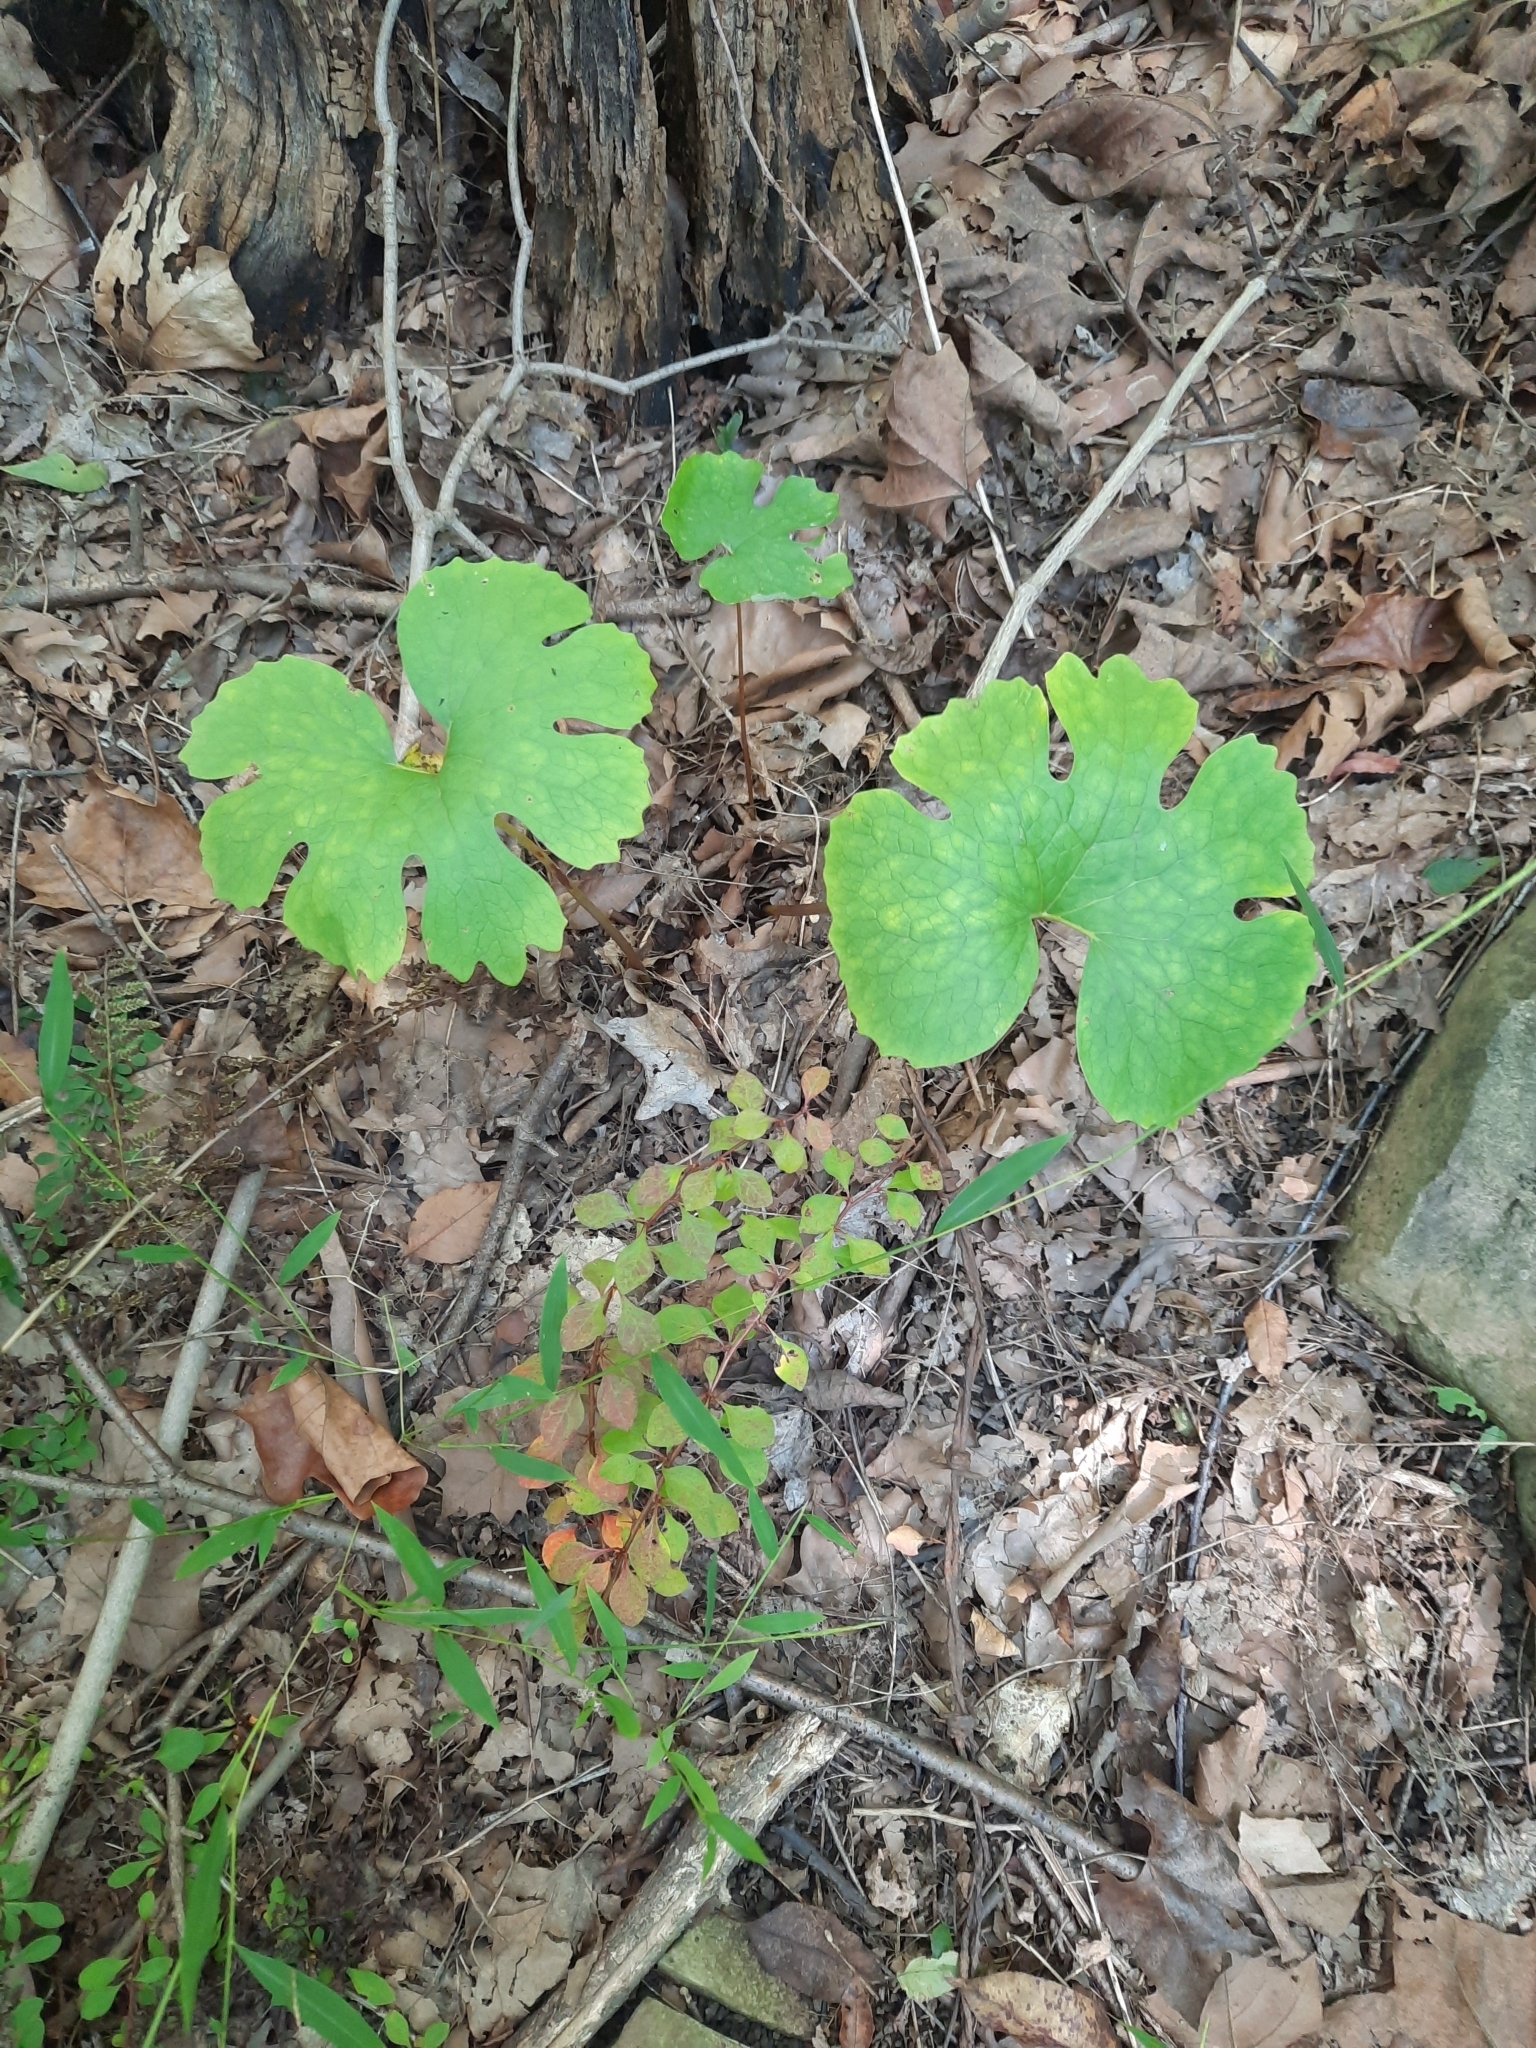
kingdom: Plantae
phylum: Tracheophyta
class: Magnoliopsida
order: Ranunculales
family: Papaveraceae
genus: Sanguinaria
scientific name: Sanguinaria canadensis
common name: Bloodroot
